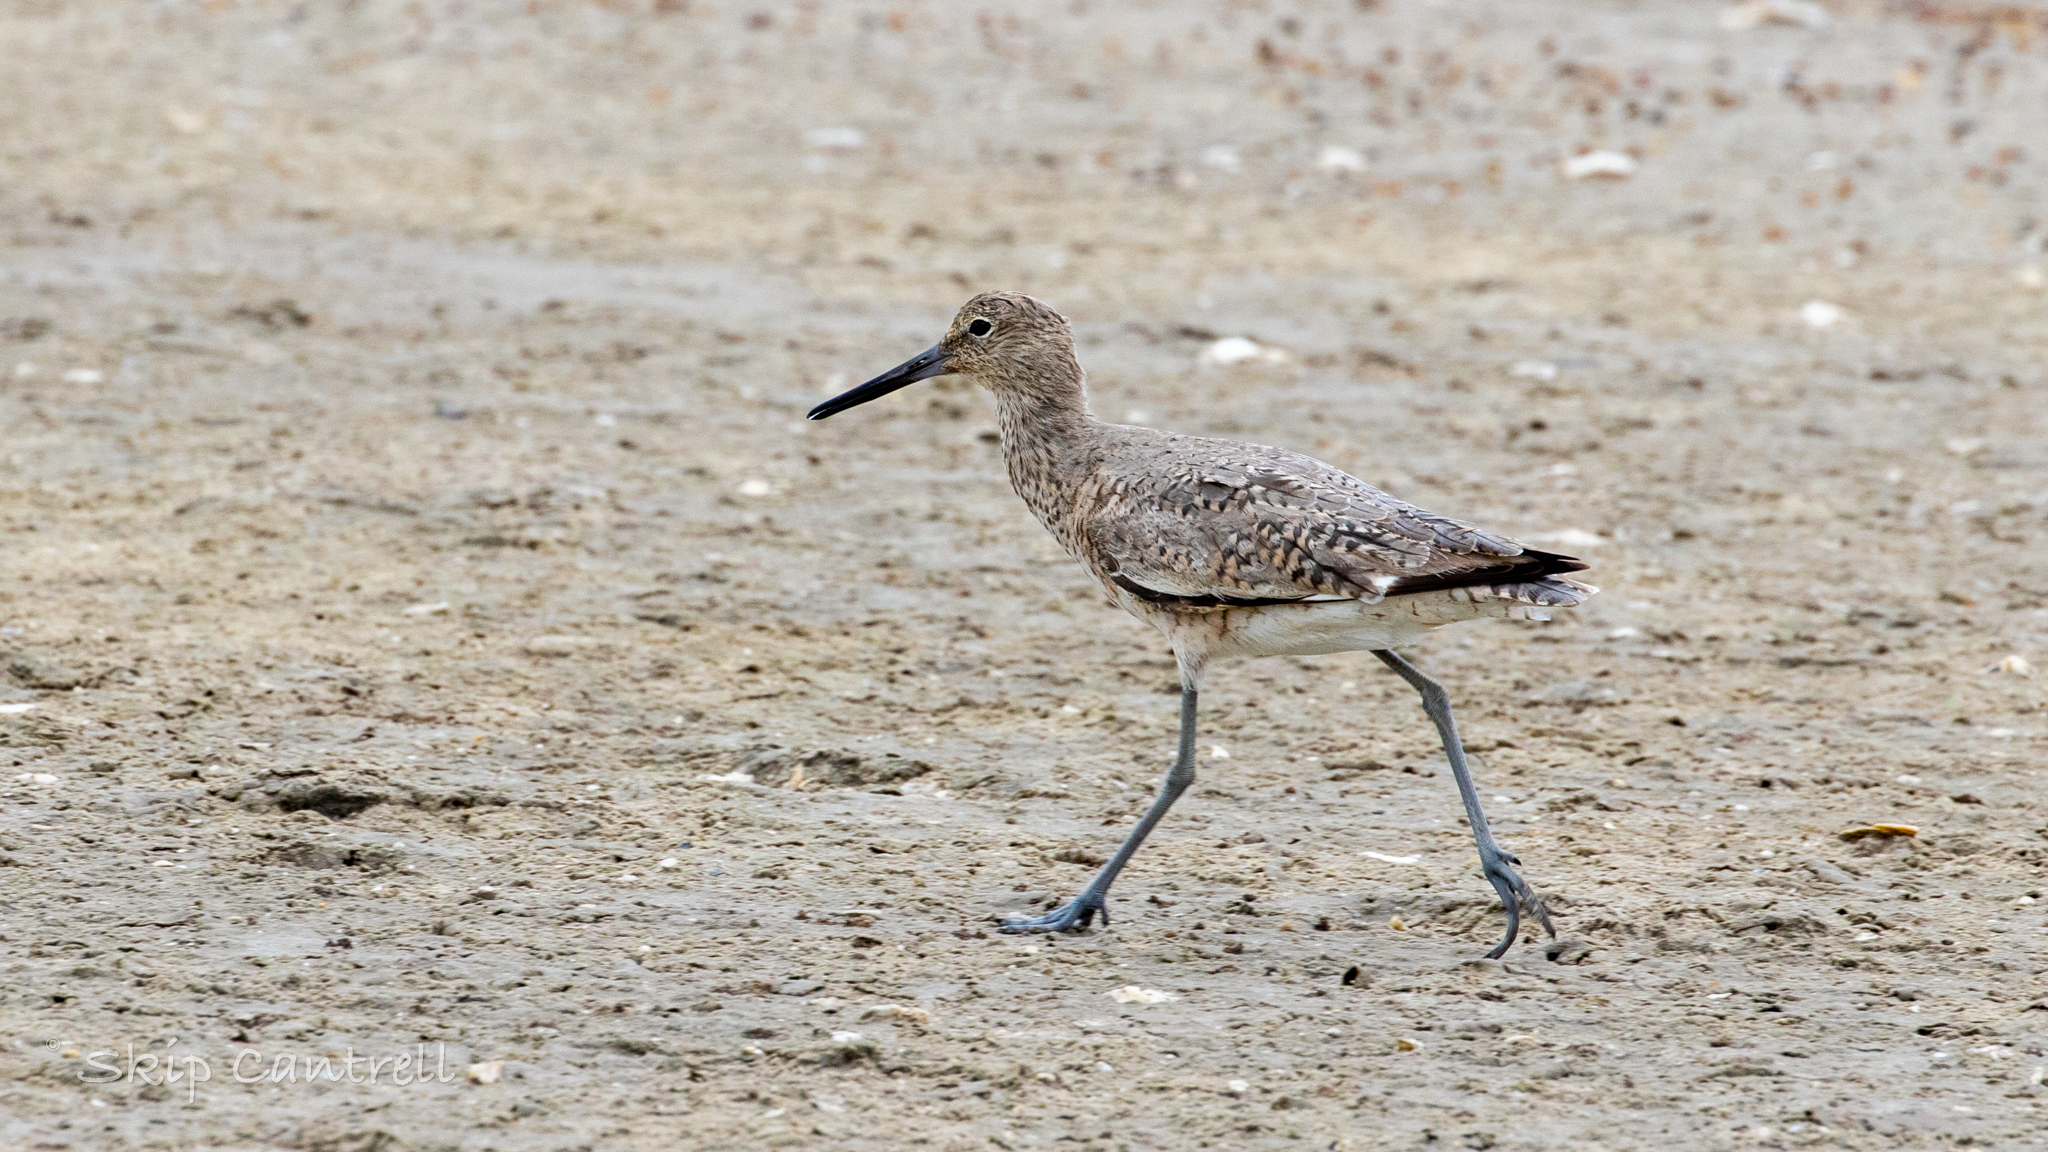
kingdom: Animalia
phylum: Chordata
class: Aves
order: Charadriiformes
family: Scolopacidae
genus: Tringa
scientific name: Tringa semipalmata
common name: Willet
